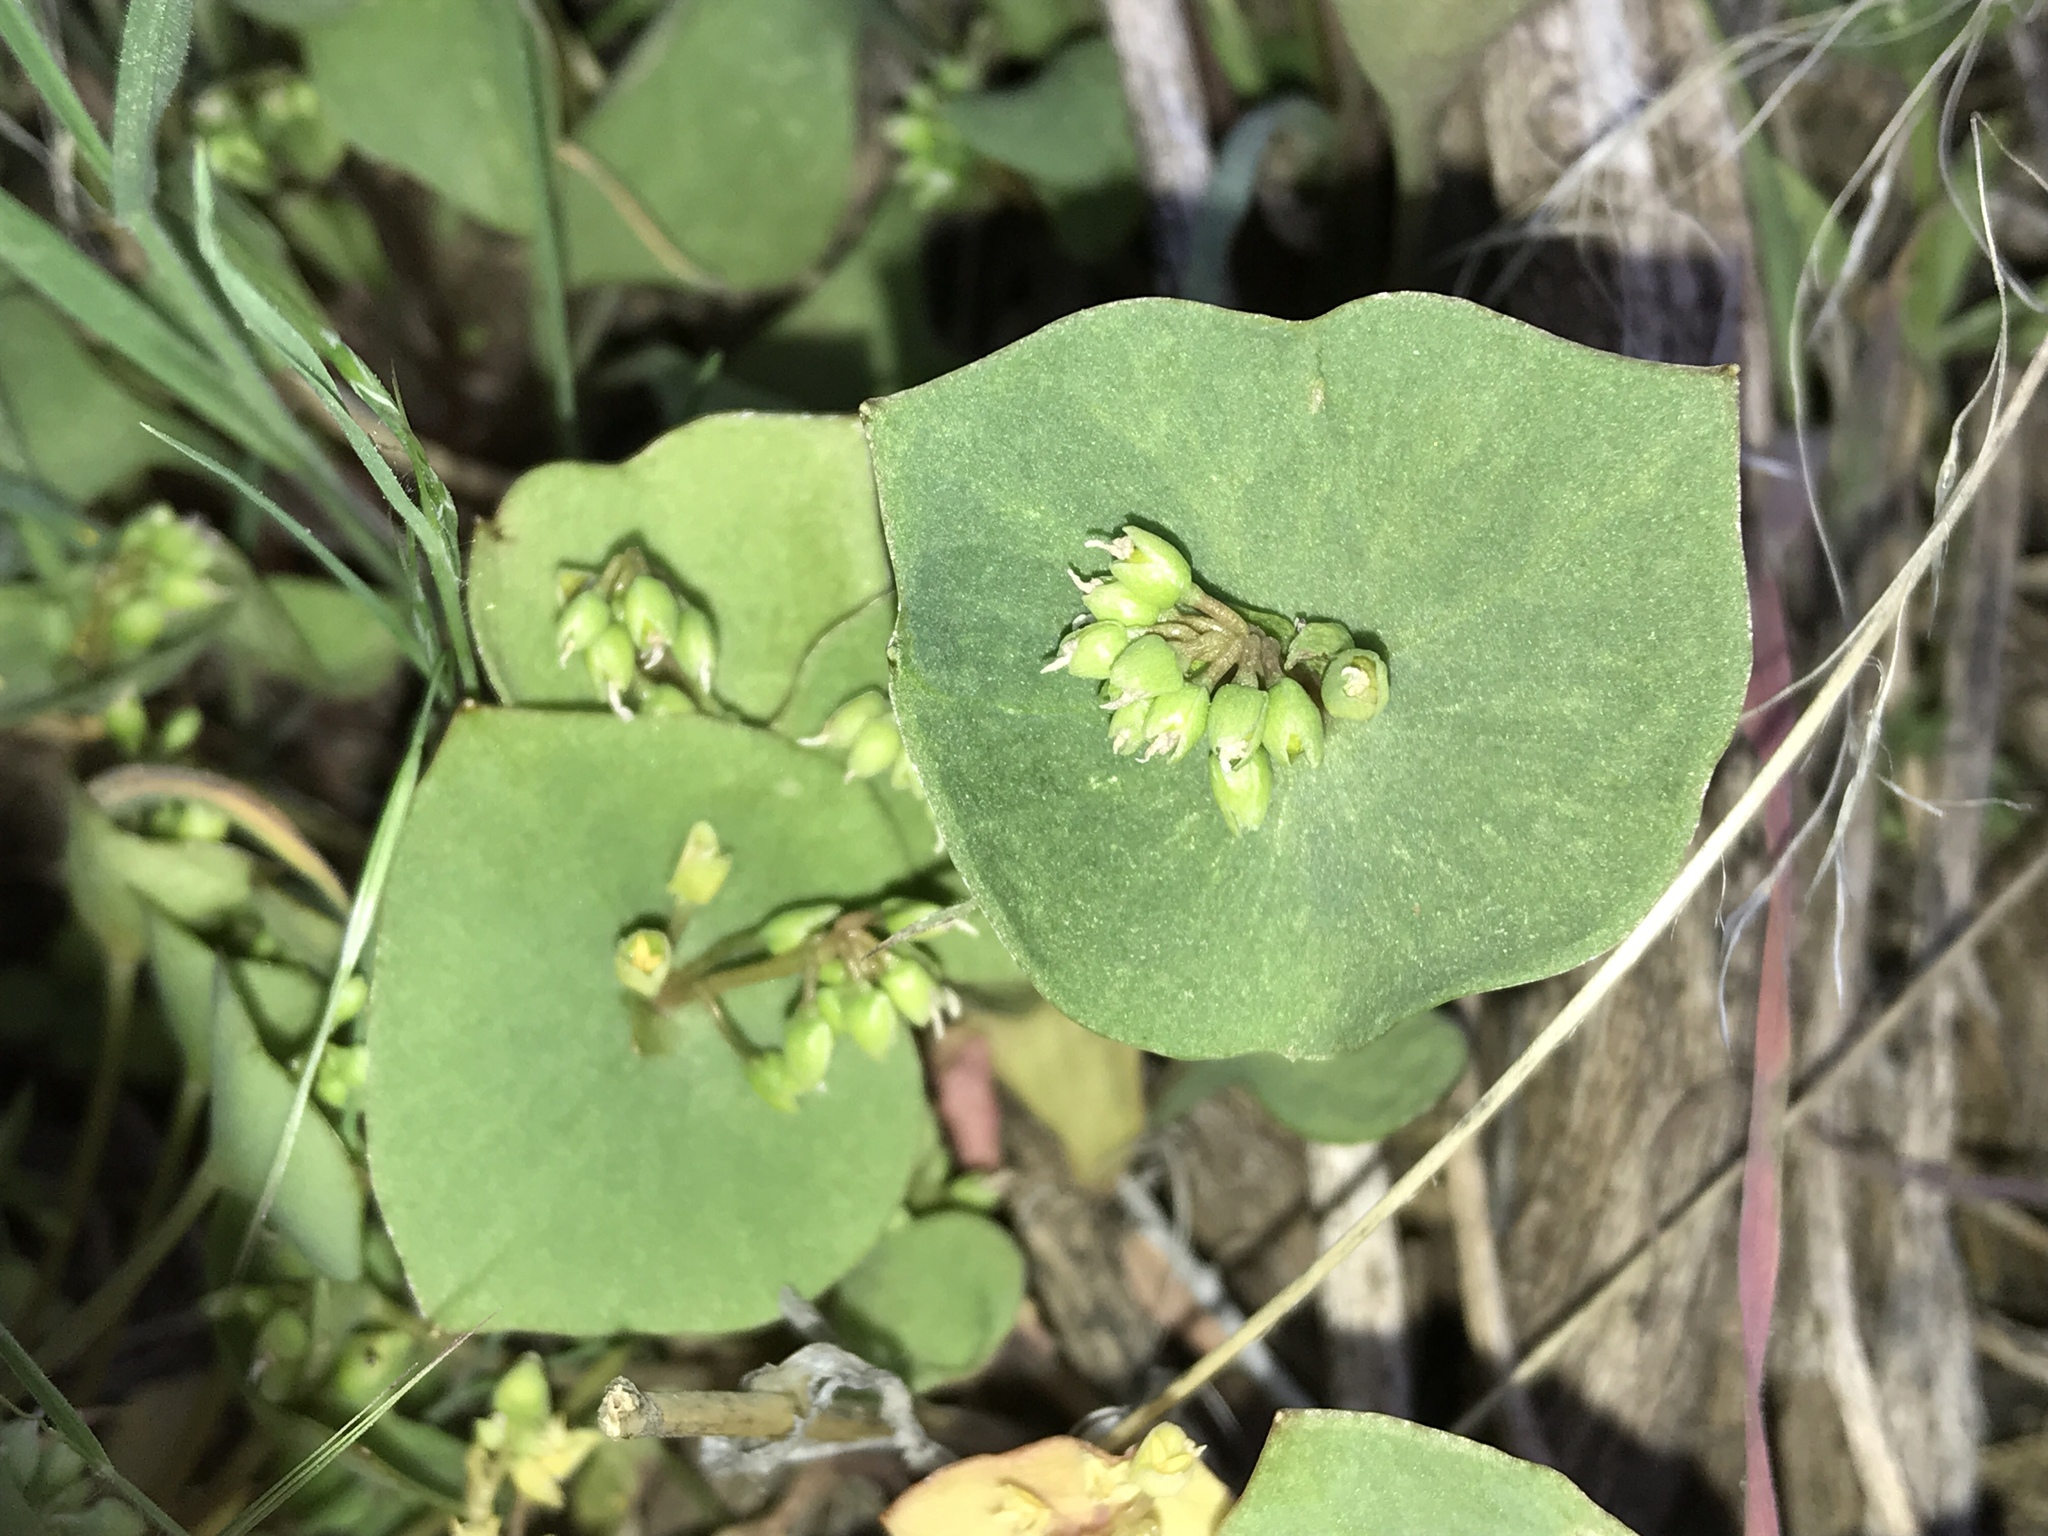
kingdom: Plantae
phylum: Tracheophyta
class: Magnoliopsida
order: Caryophyllales
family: Montiaceae
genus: Claytonia
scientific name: Claytonia perfoliata
